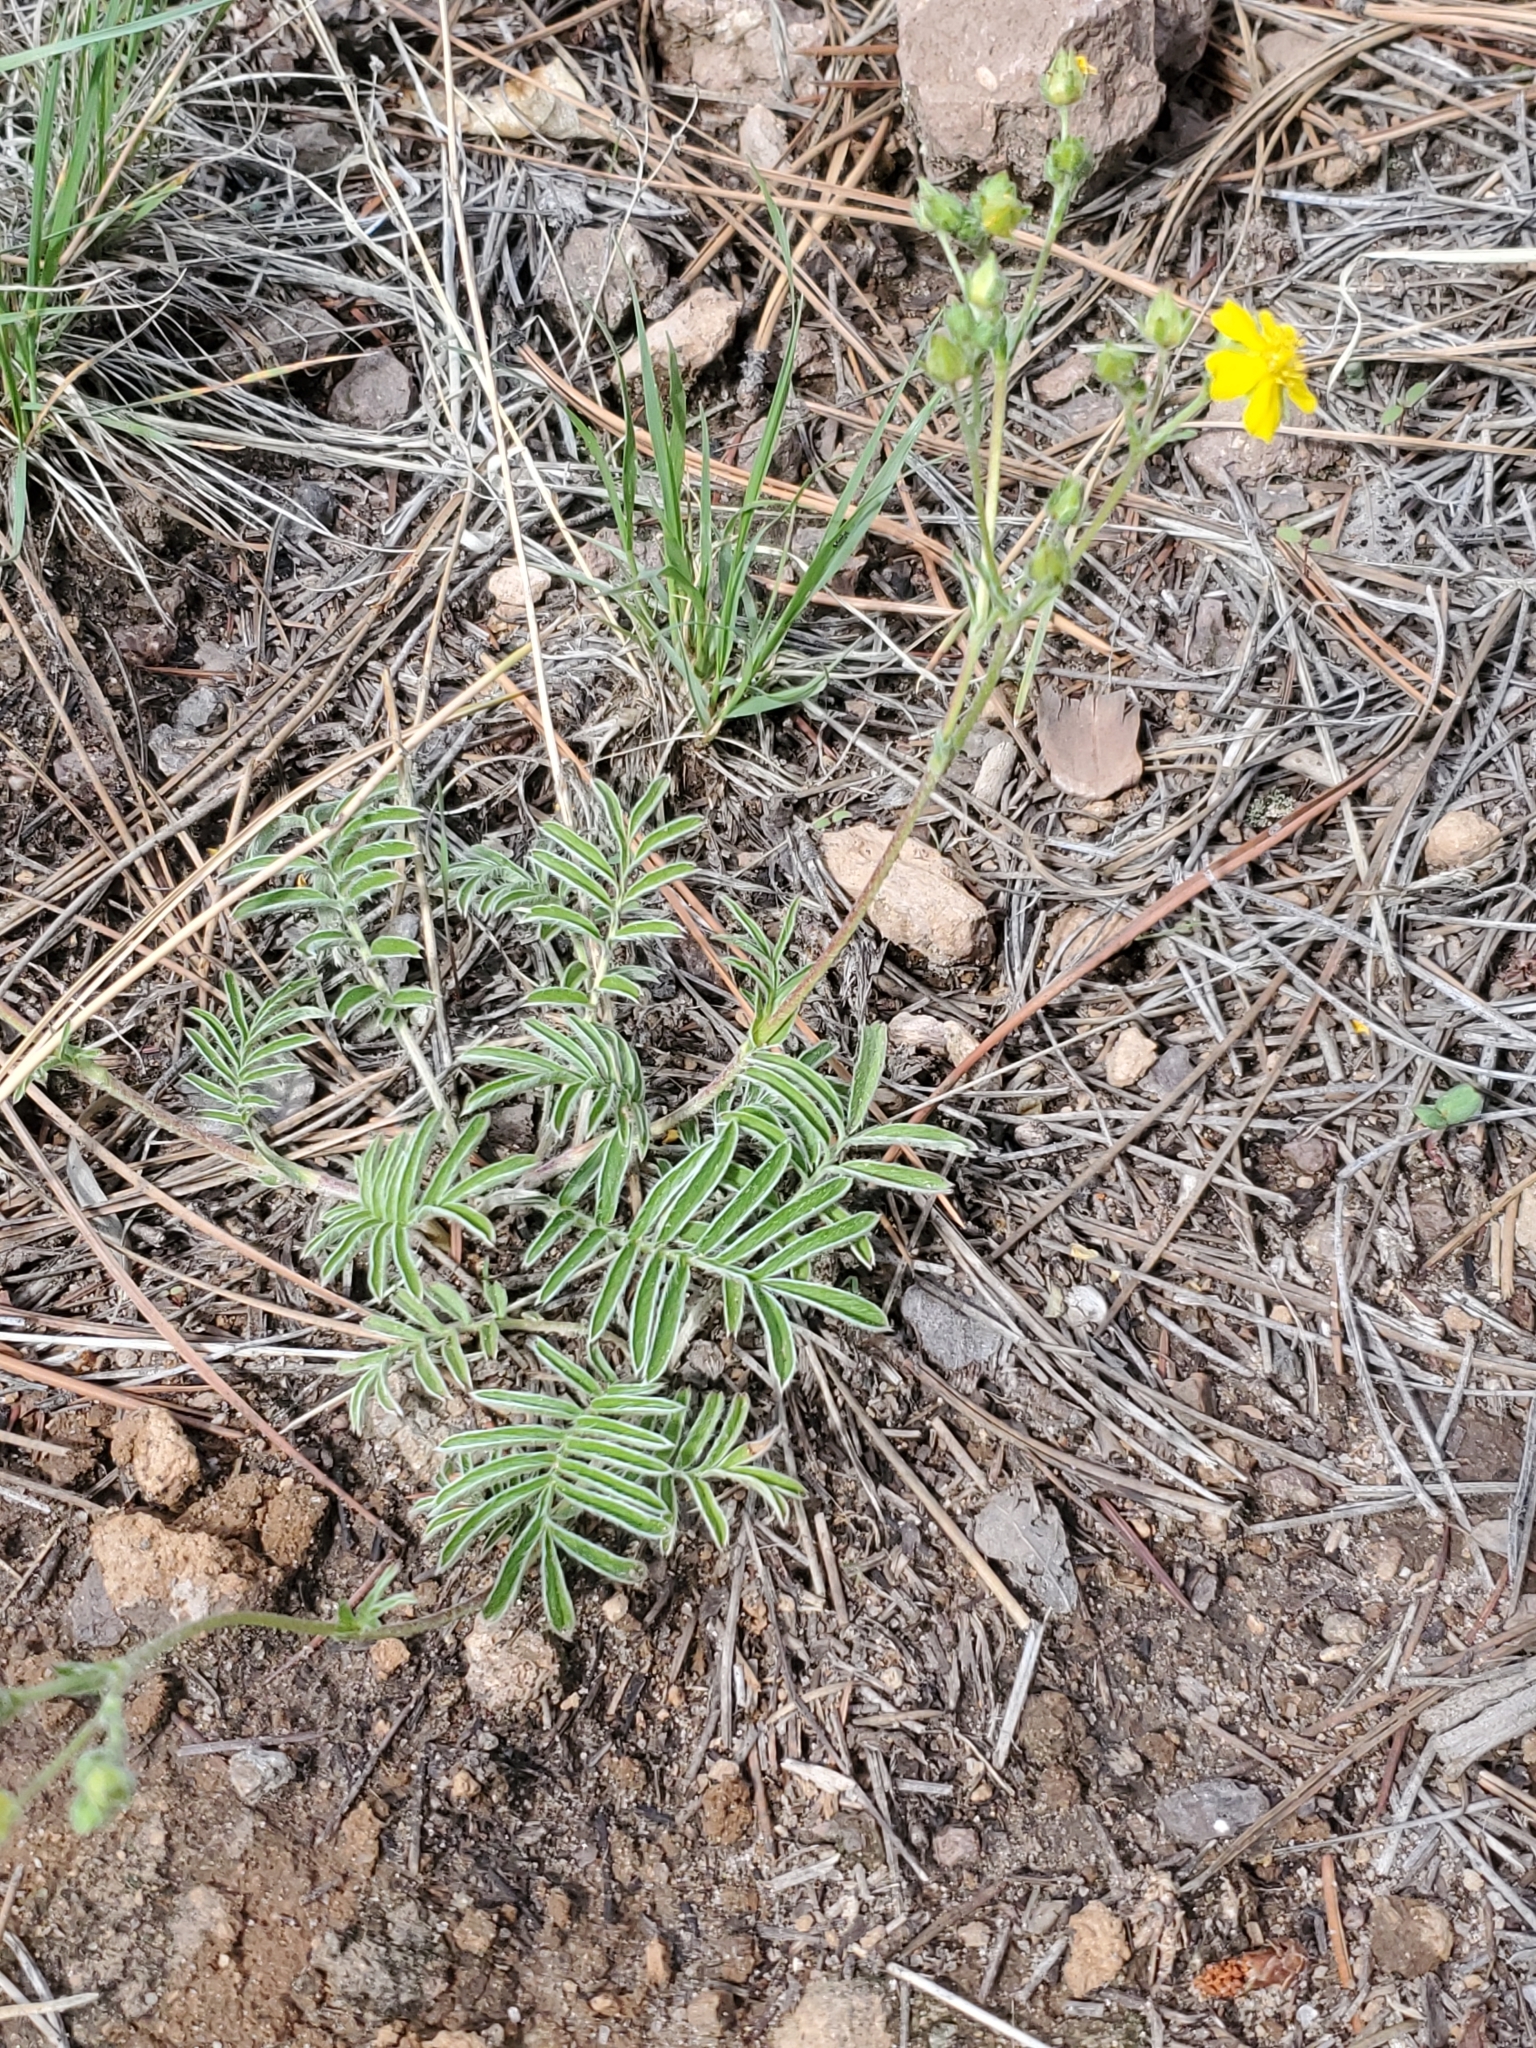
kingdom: Plantae
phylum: Tracheophyta
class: Magnoliopsida
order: Rosales
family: Rosaceae
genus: Potentilla
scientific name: Potentilla crinita
